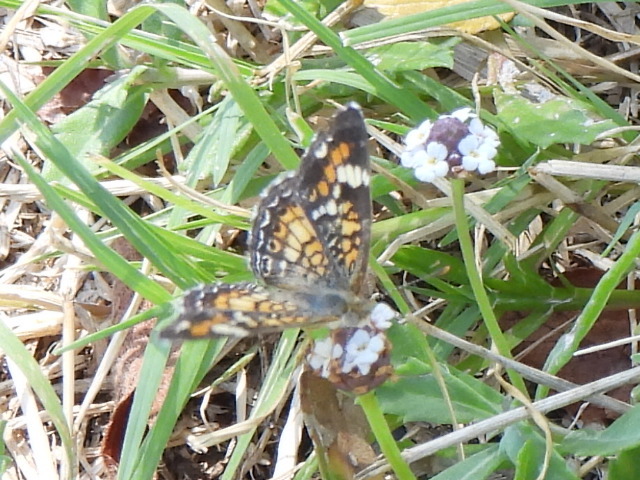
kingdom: Animalia
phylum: Arthropoda
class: Insecta
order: Lepidoptera
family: Nymphalidae
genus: Phyciodes
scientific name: Phyciodes phaon
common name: Phaon crescent
